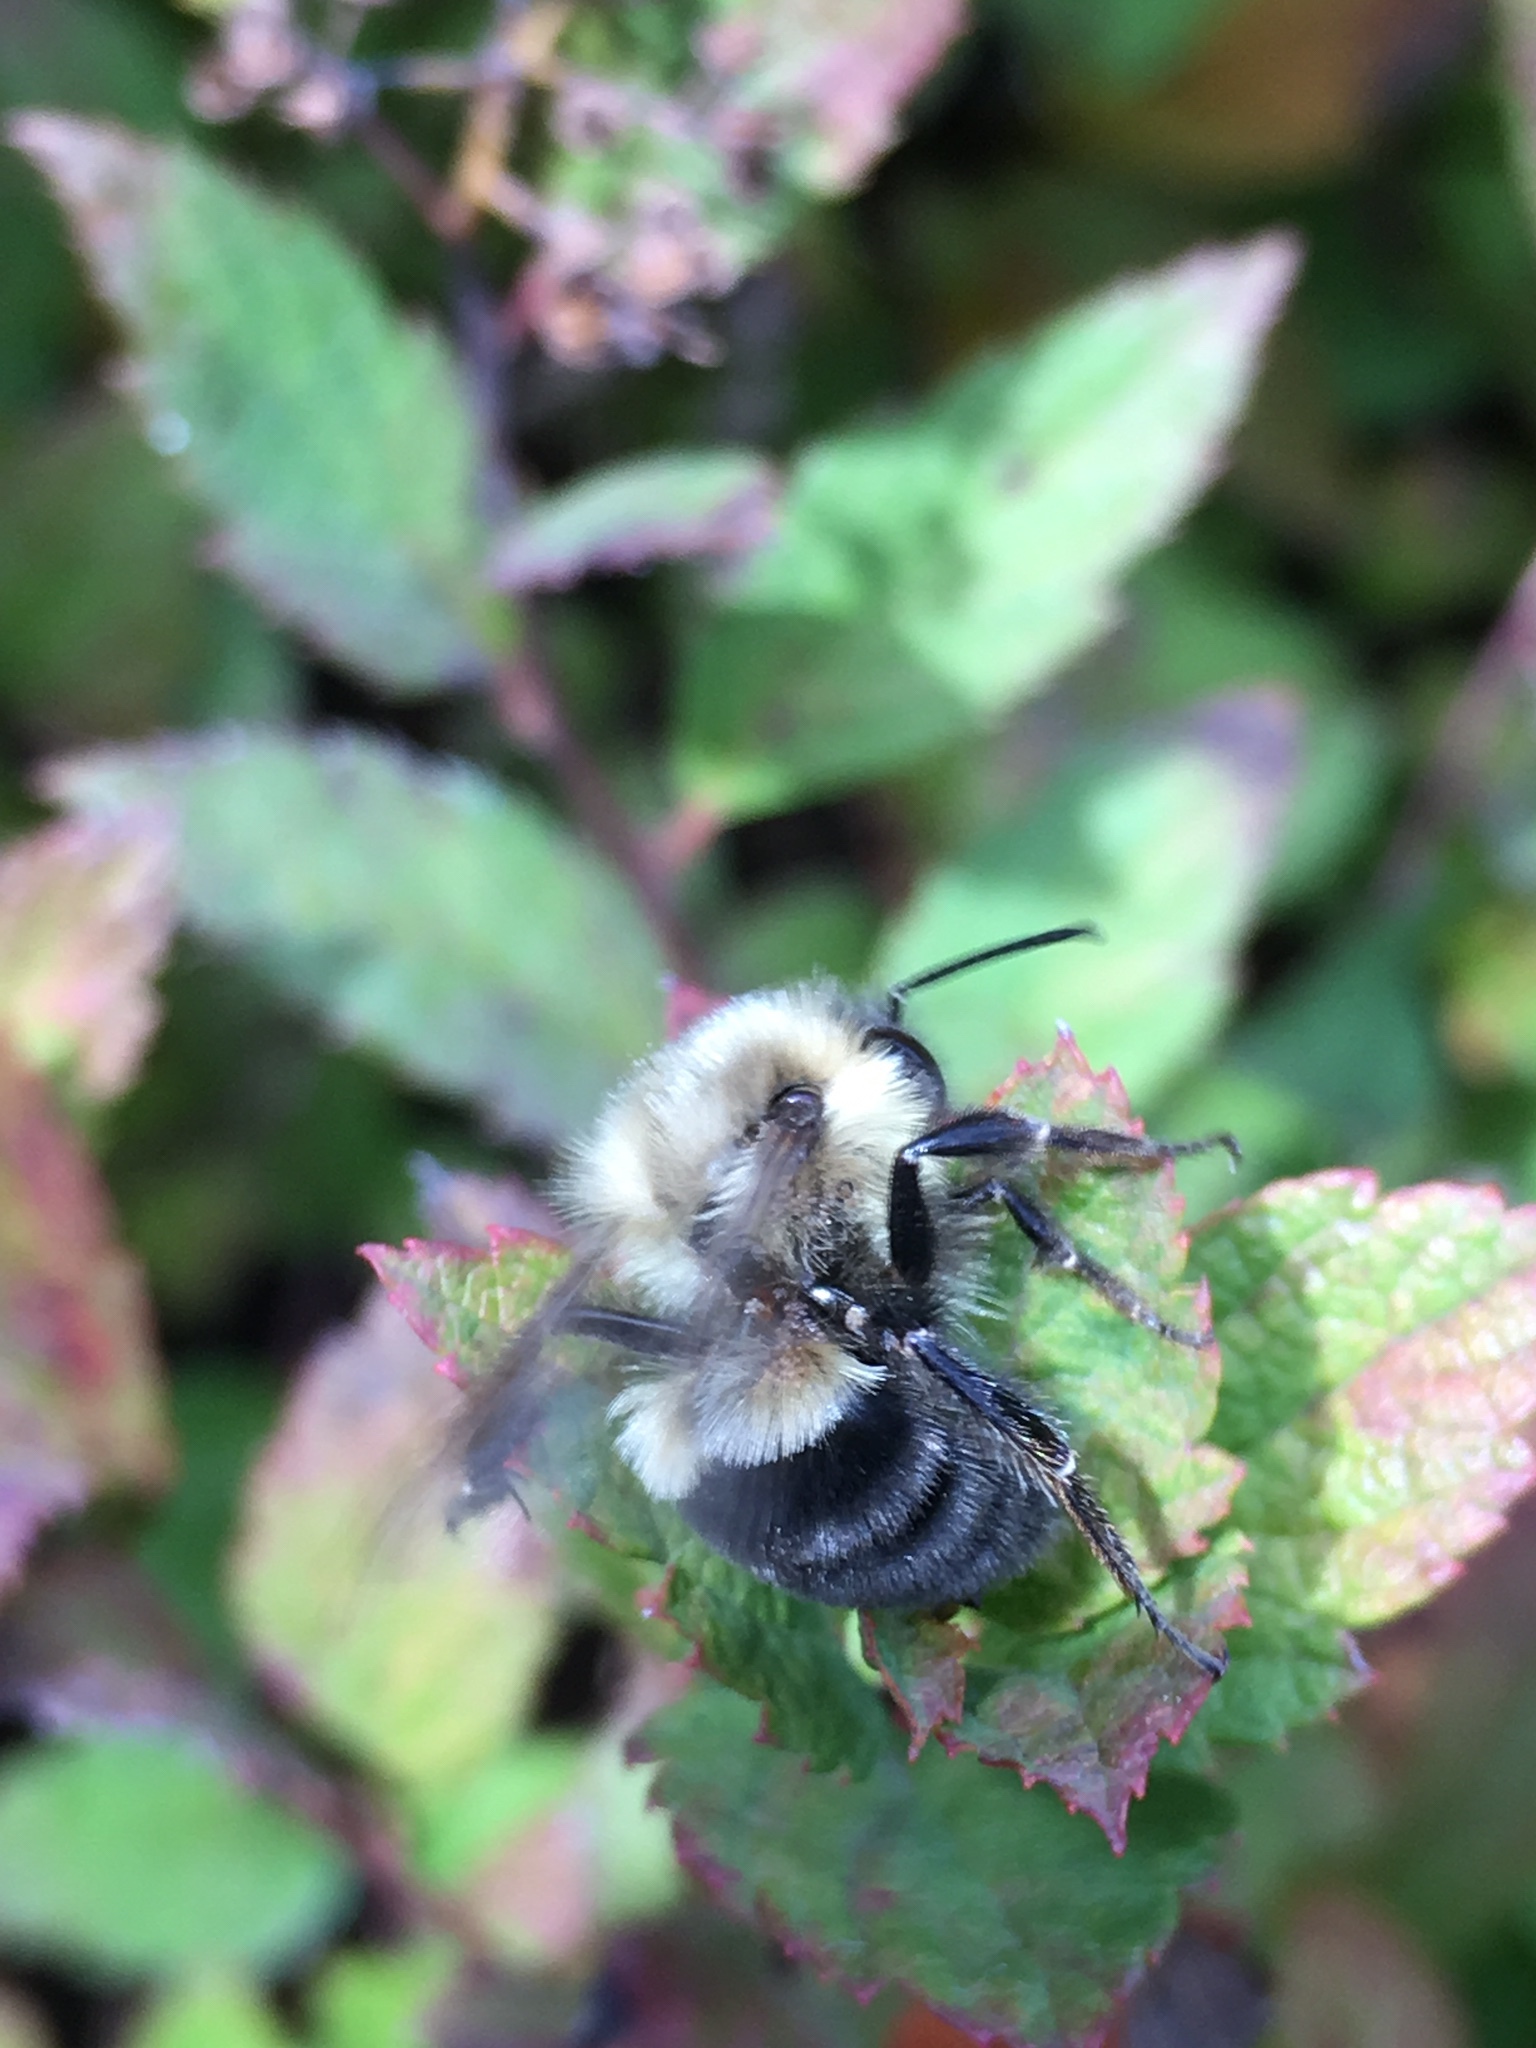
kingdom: Animalia
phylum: Arthropoda
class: Insecta
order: Hymenoptera
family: Apidae
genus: Bombus
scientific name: Bombus impatiens
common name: Common eastern bumble bee
